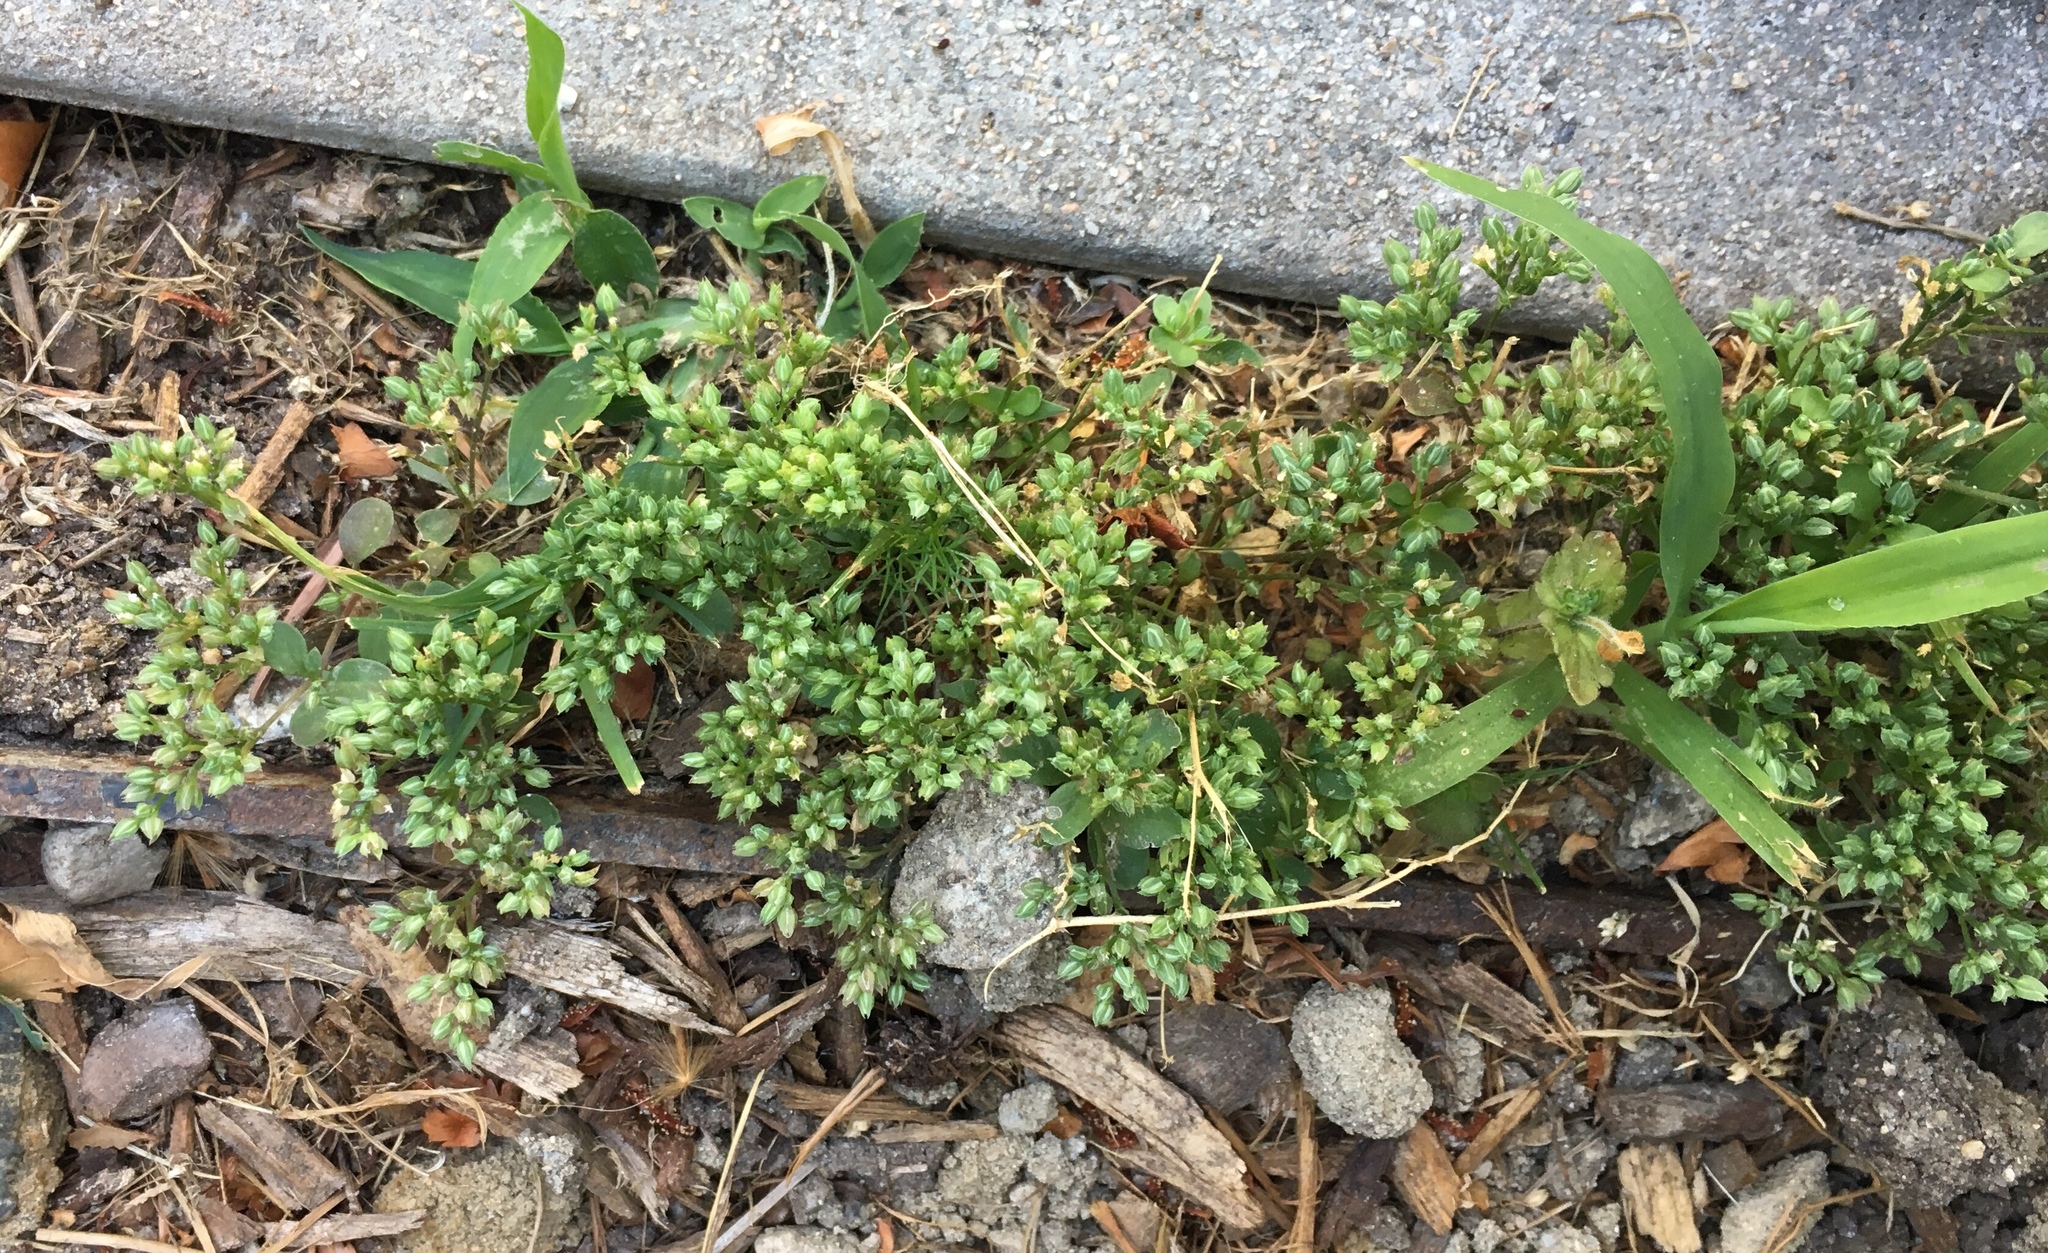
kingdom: Plantae
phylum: Tracheophyta
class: Magnoliopsida
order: Caryophyllales
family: Caryophyllaceae
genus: Polycarpon
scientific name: Polycarpon tetraphyllum
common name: Four-leaved all-seed
